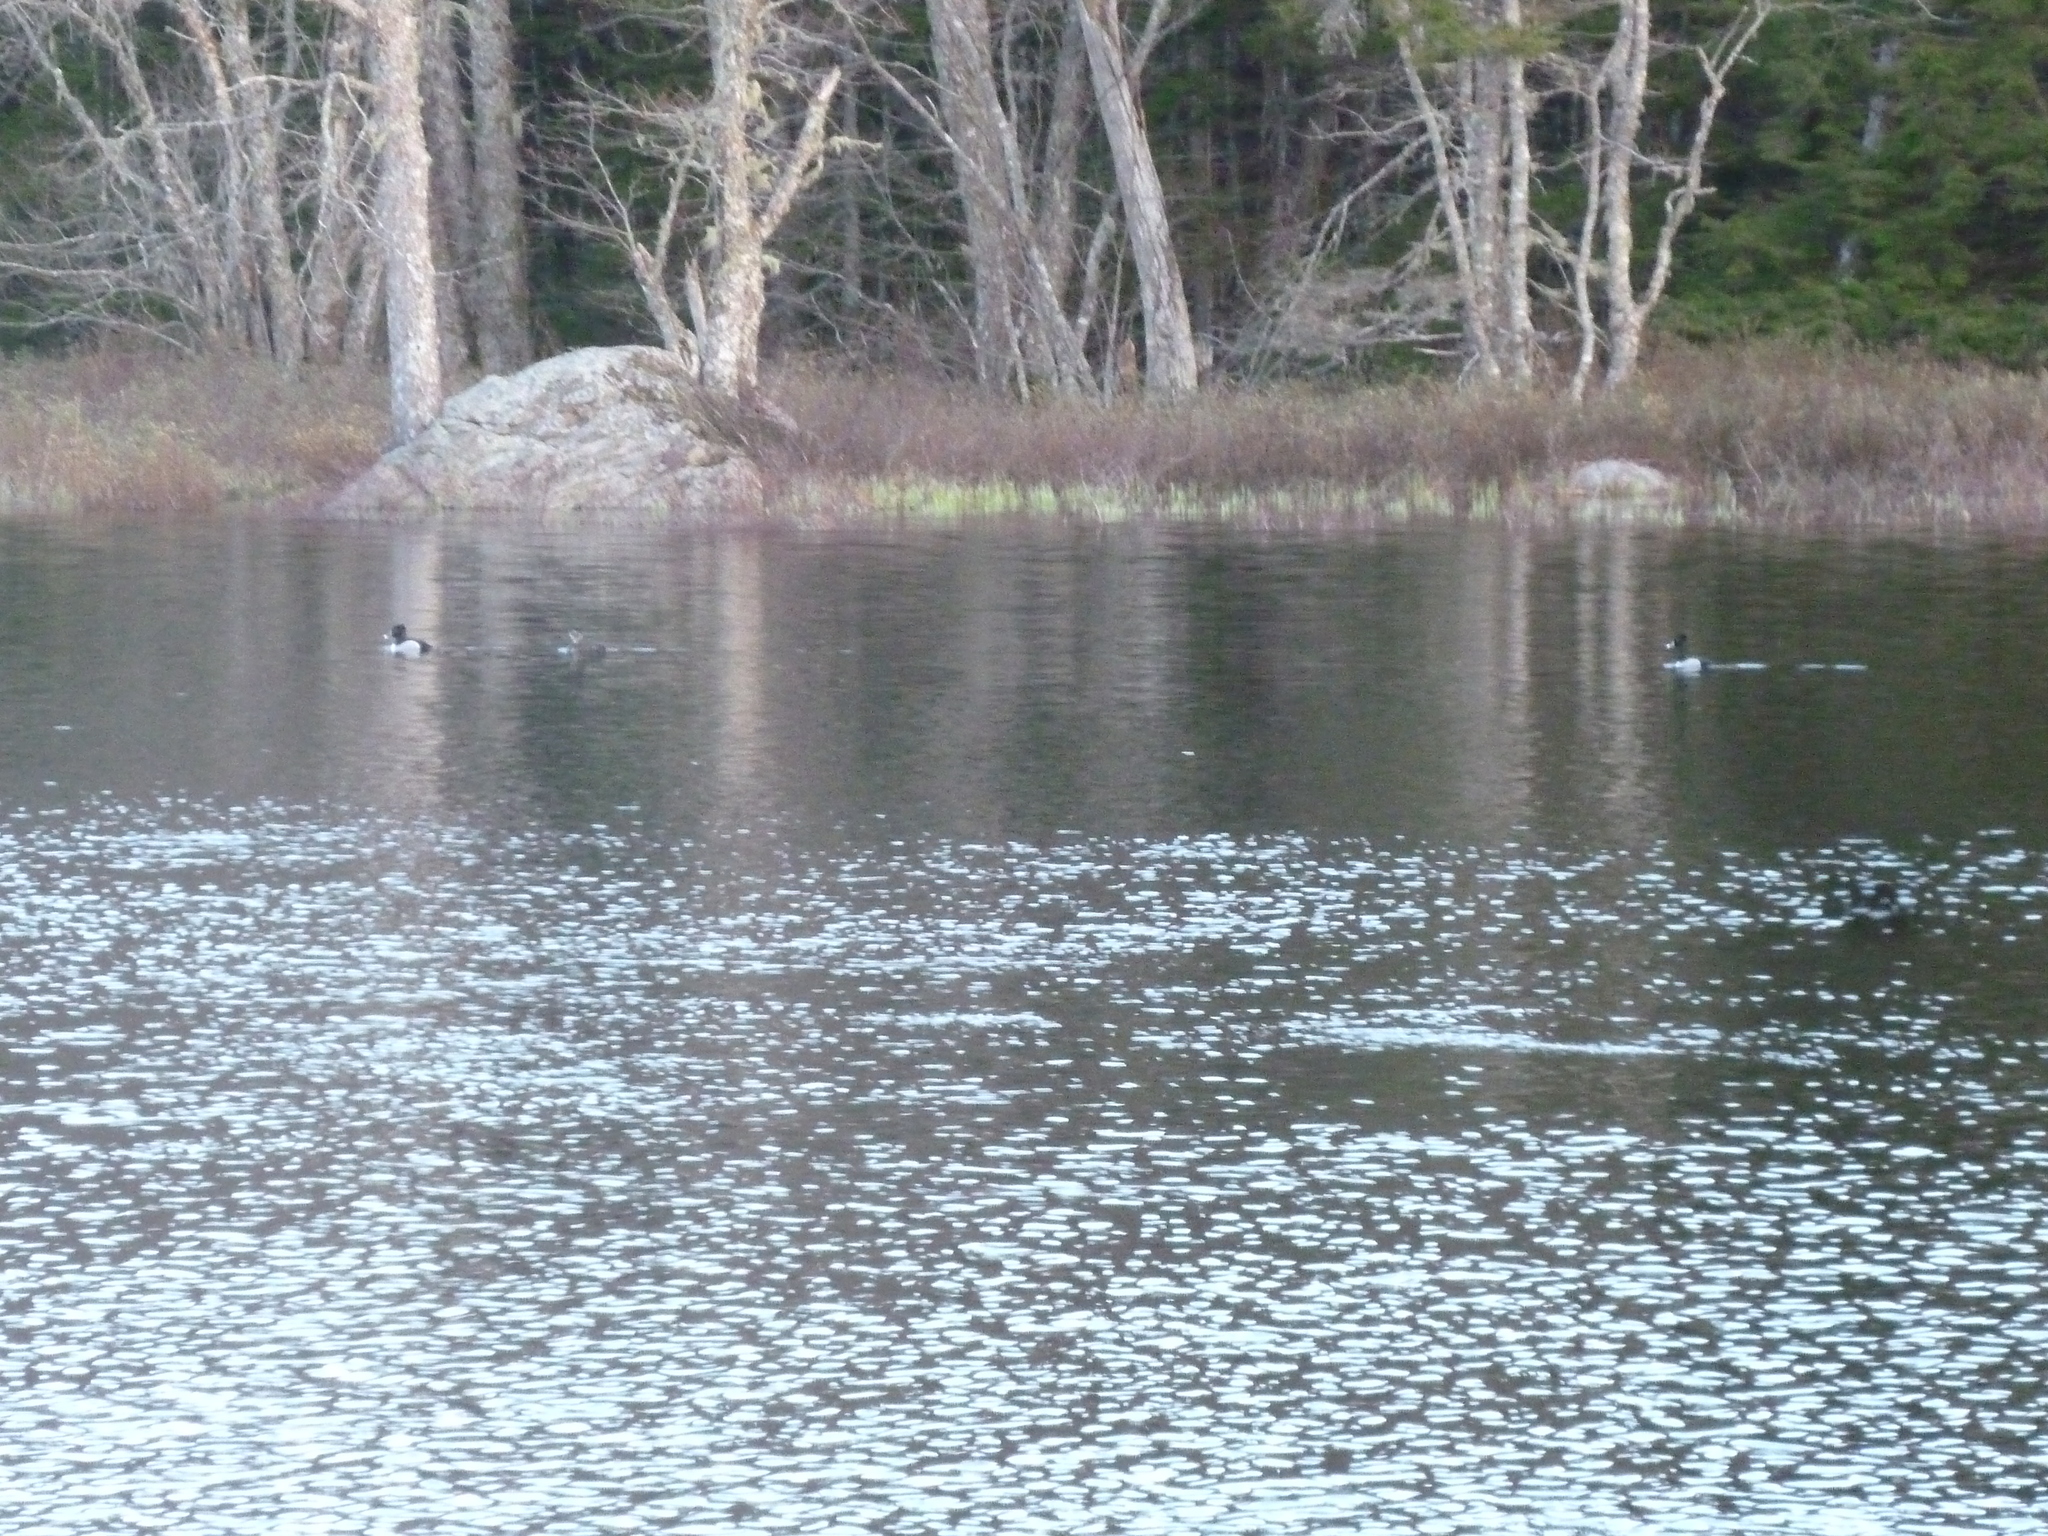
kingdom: Animalia
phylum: Chordata
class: Aves
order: Anseriformes
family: Anatidae
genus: Aythya
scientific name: Aythya collaris
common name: Ring-necked duck
